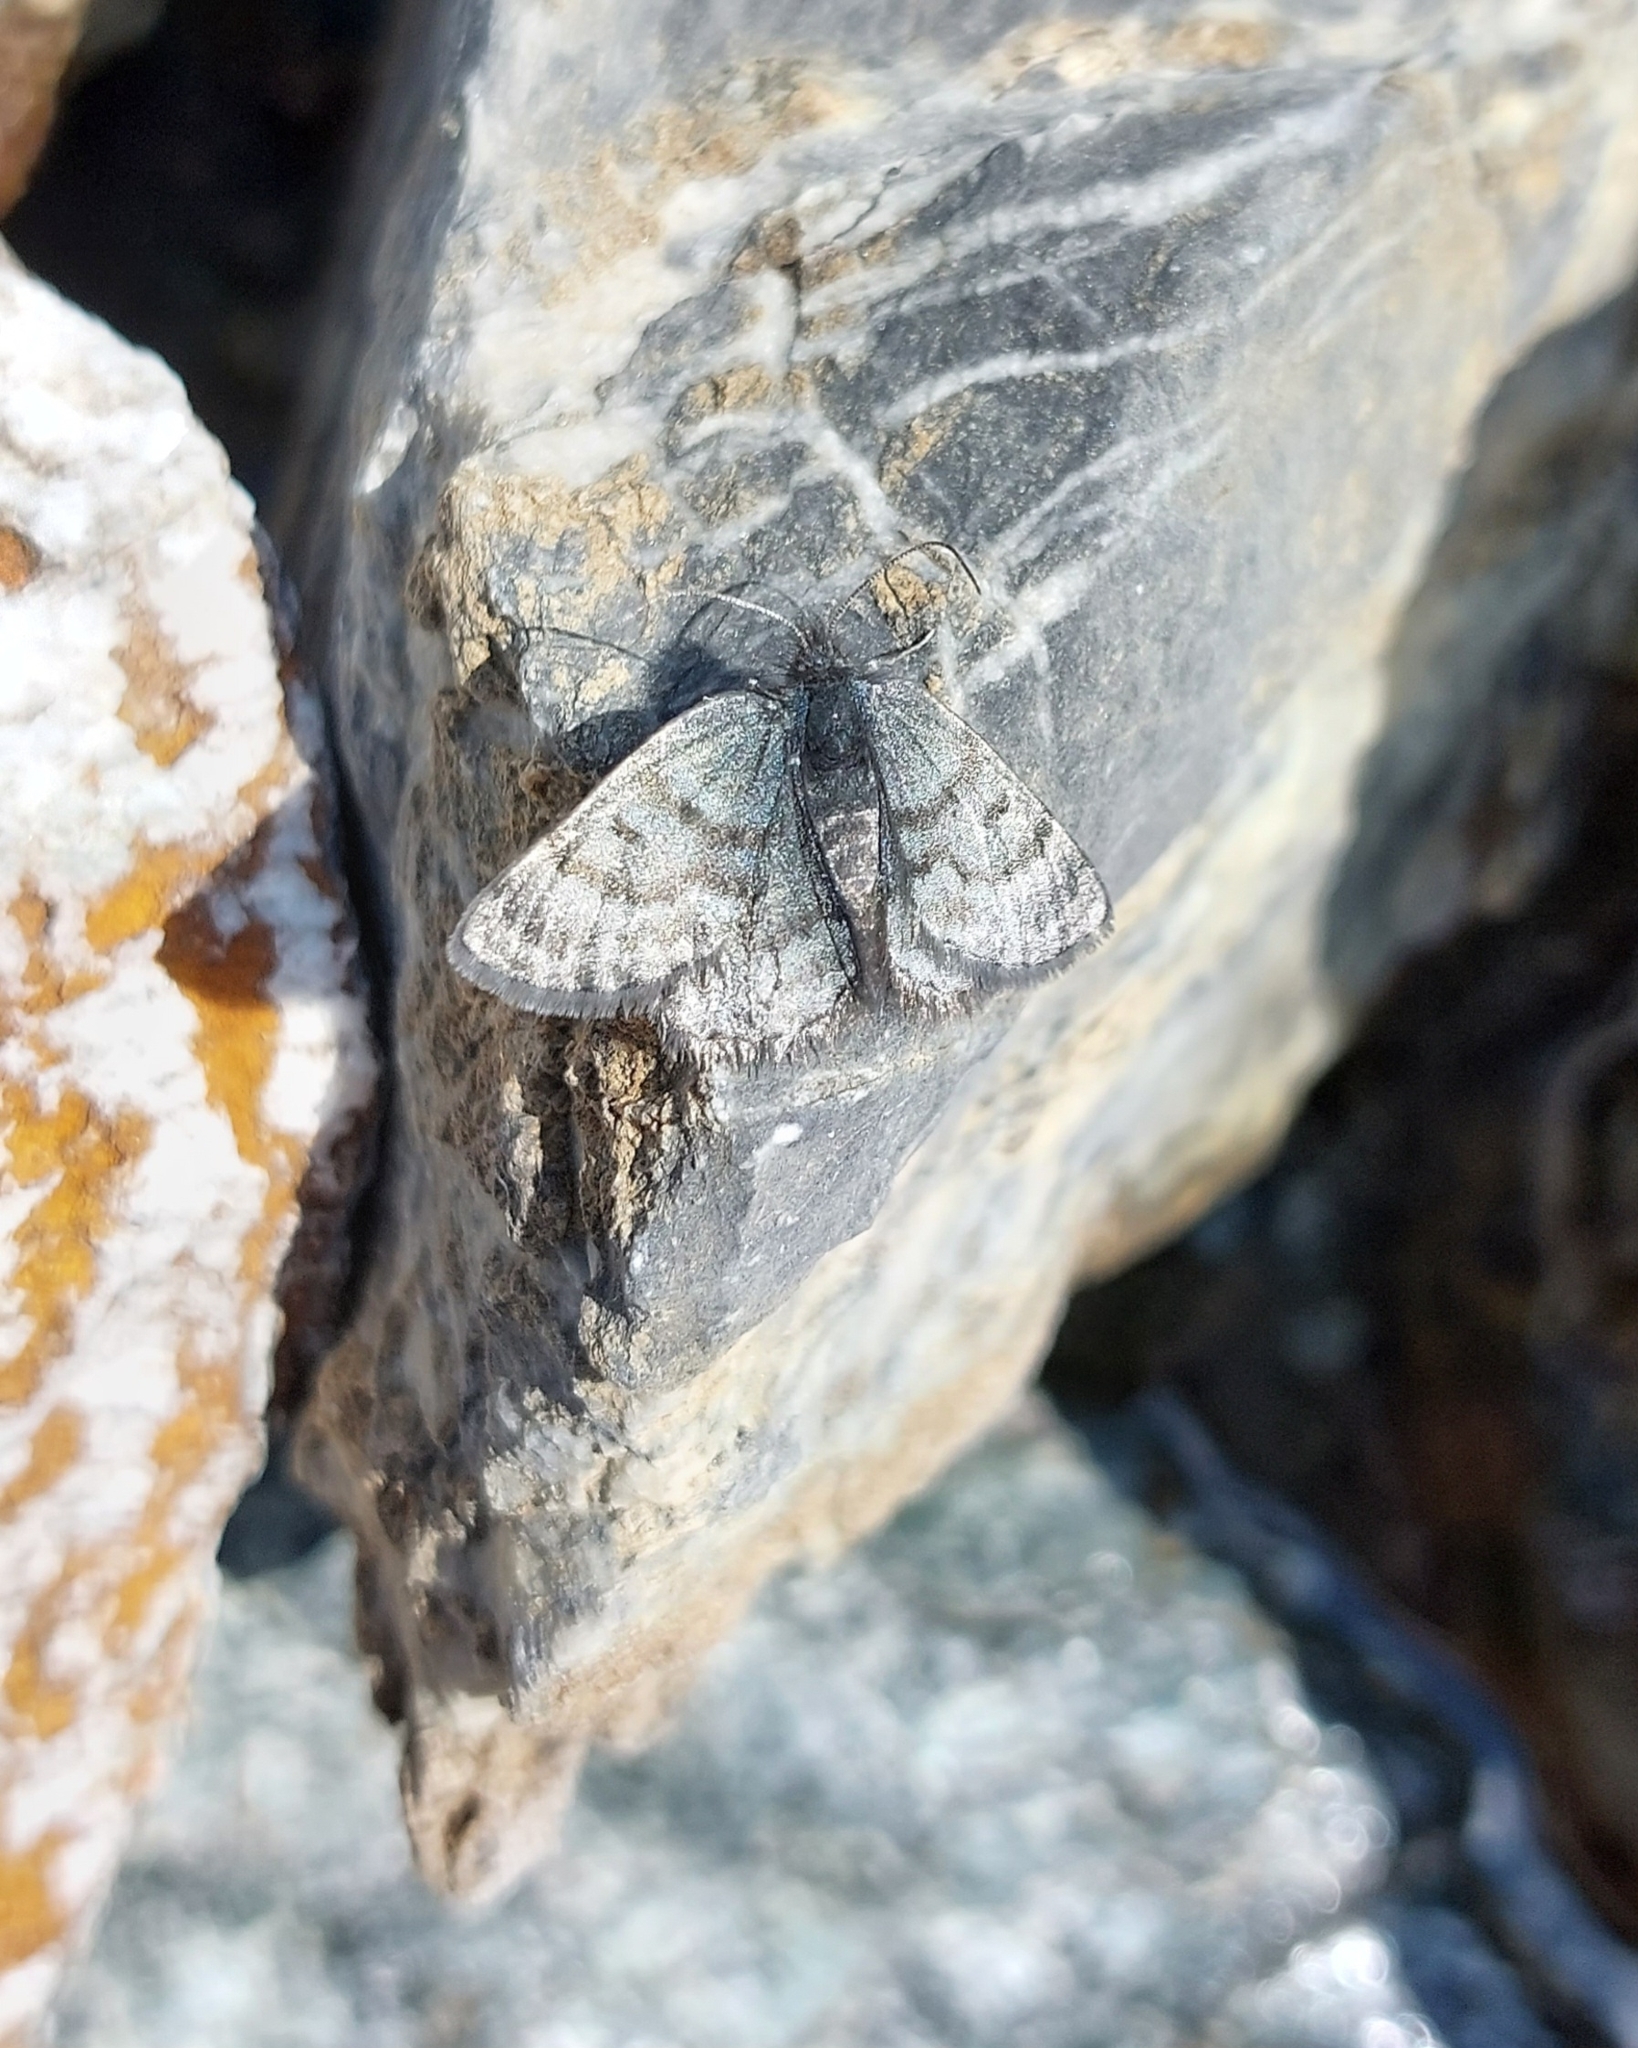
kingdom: Animalia
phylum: Arthropoda
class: Insecta
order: Lepidoptera
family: Geometridae
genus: Glacies
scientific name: Glacies coracina
